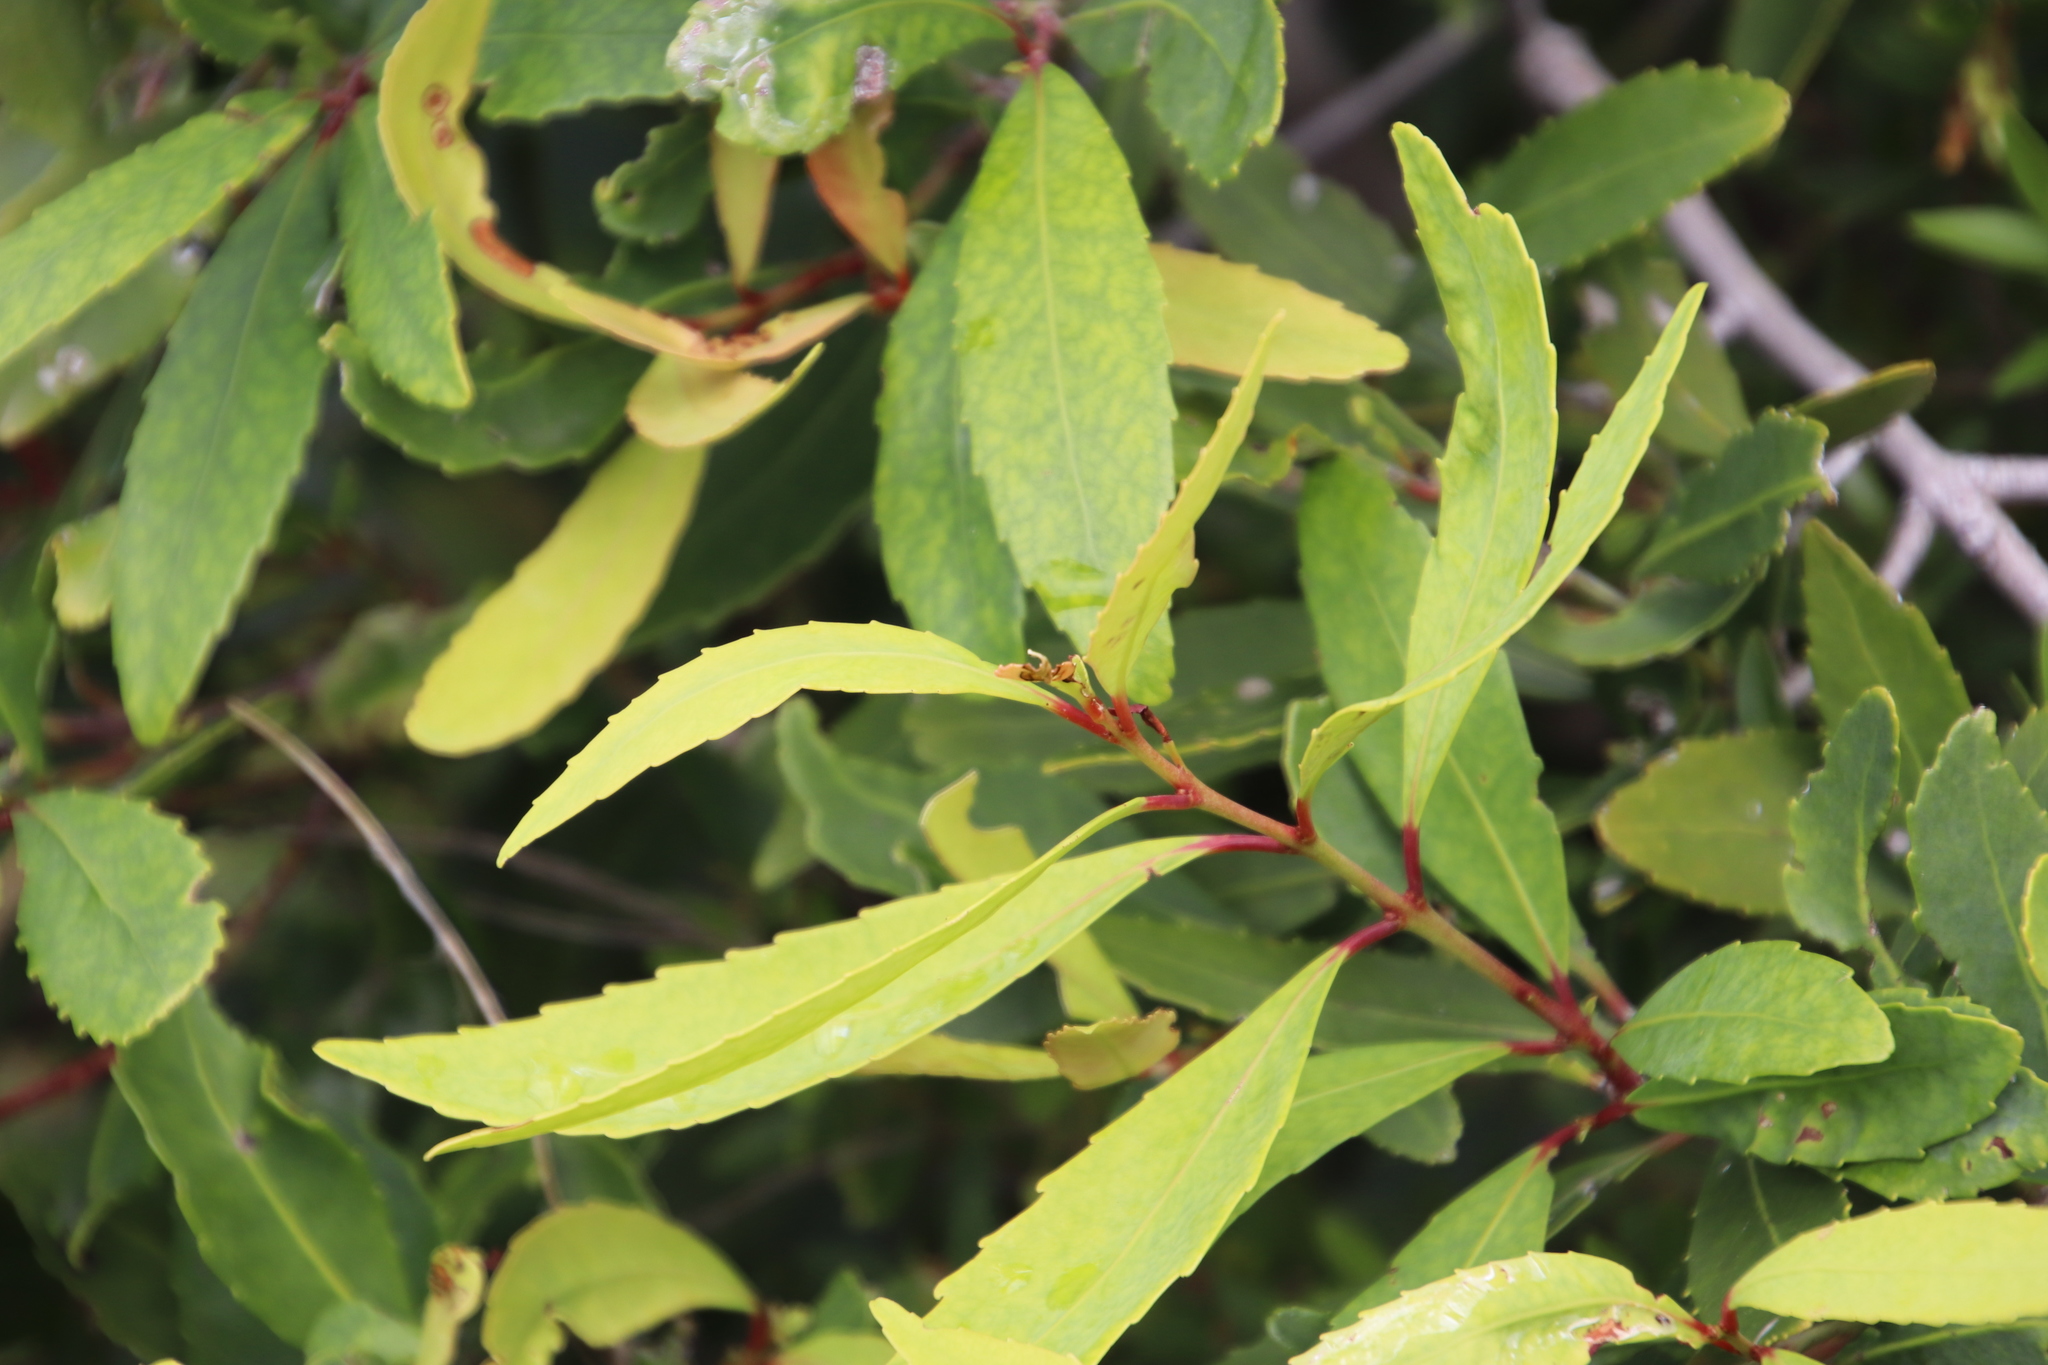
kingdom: Plantae
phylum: Tracheophyta
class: Magnoliopsida
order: Celastrales
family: Celastraceae
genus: Elaeodendron
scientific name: Elaeodendron schinoides
